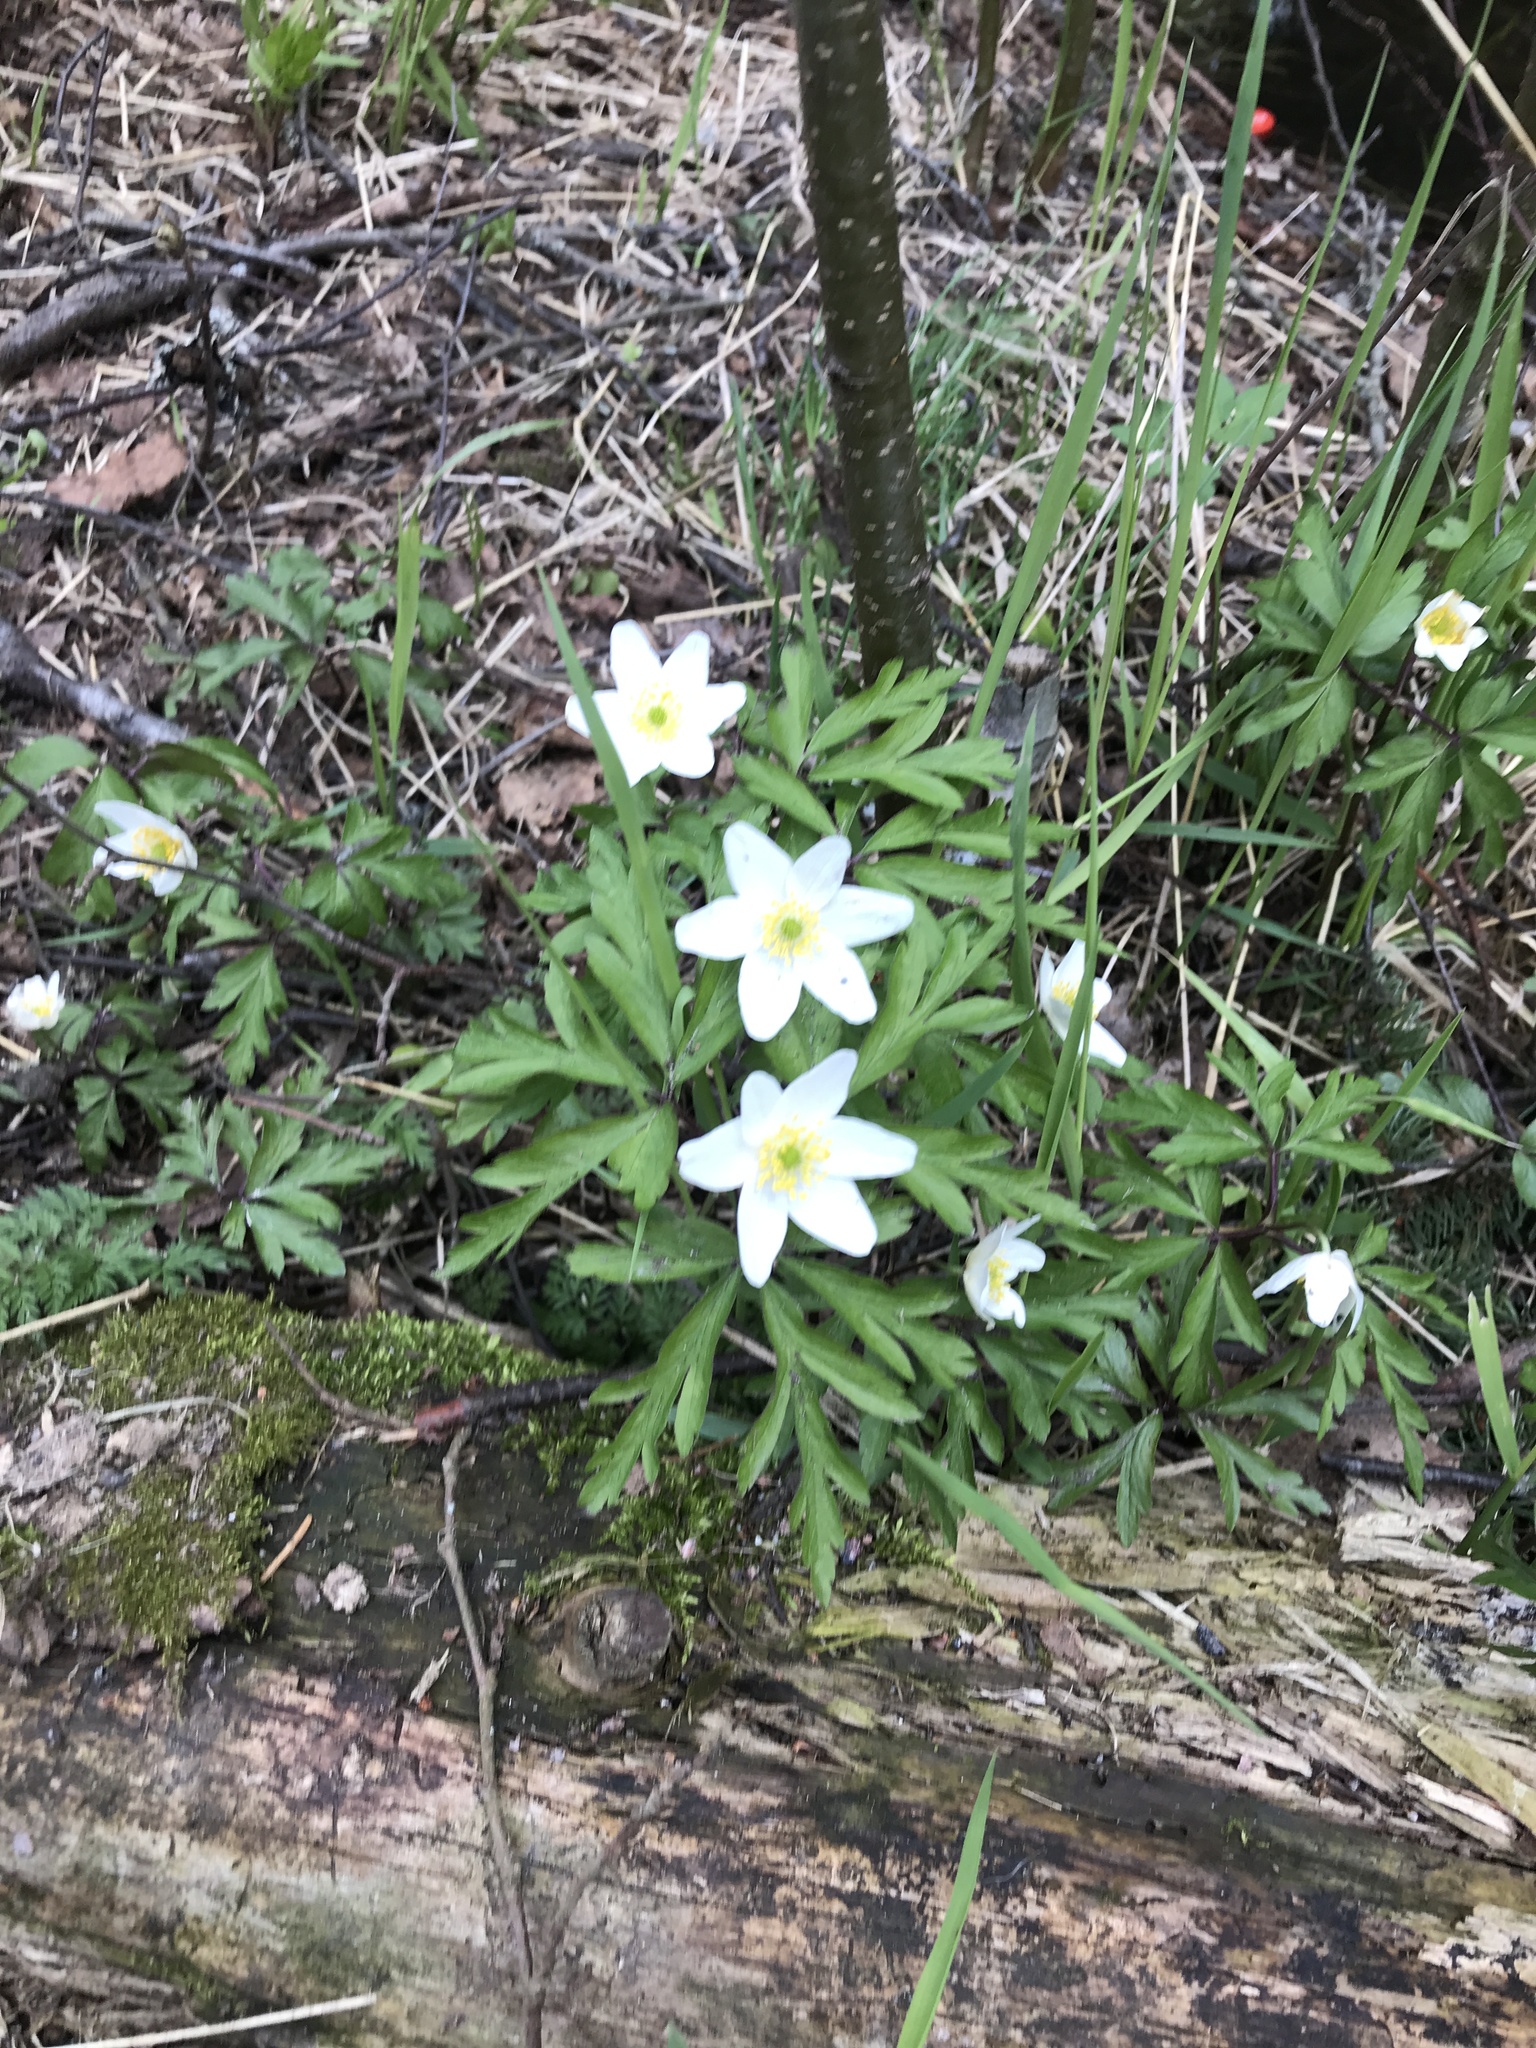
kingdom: Plantae
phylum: Tracheophyta
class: Magnoliopsida
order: Ranunculales
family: Ranunculaceae
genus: Anemone
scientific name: Anemone nemorosa
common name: Wood anemone
